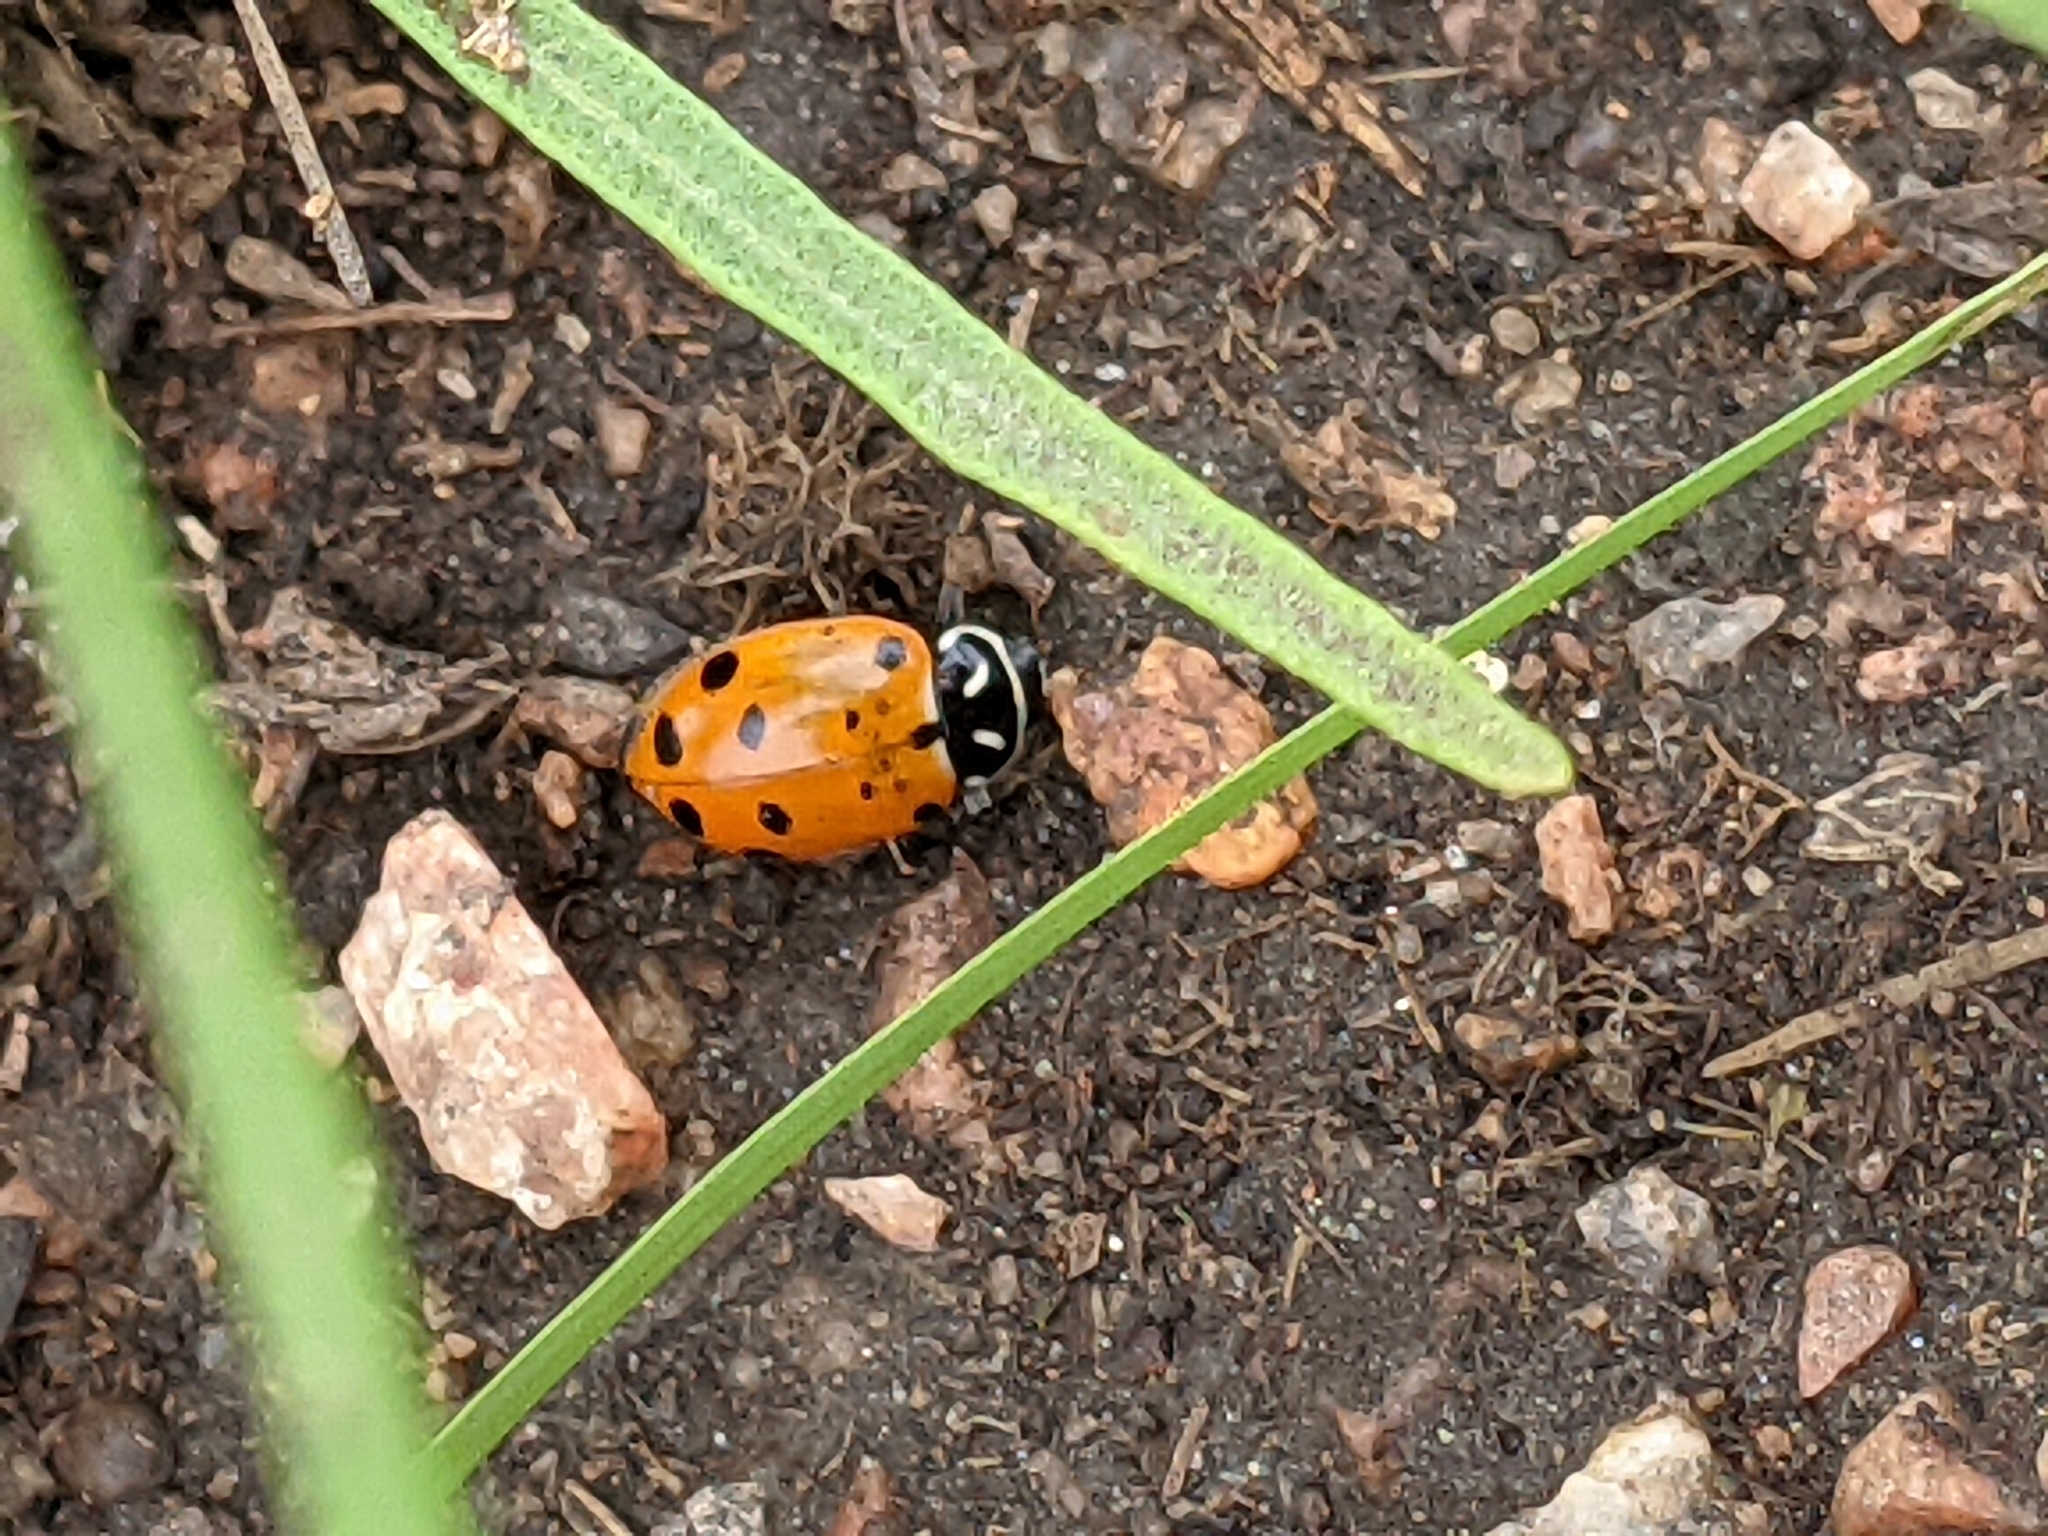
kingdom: Animalia
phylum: Arthropoda
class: Insecta
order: Coleoptera
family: Coccinellidae
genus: Hippodamia
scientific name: Hippodamia convergens
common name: Convergent lady beetle
